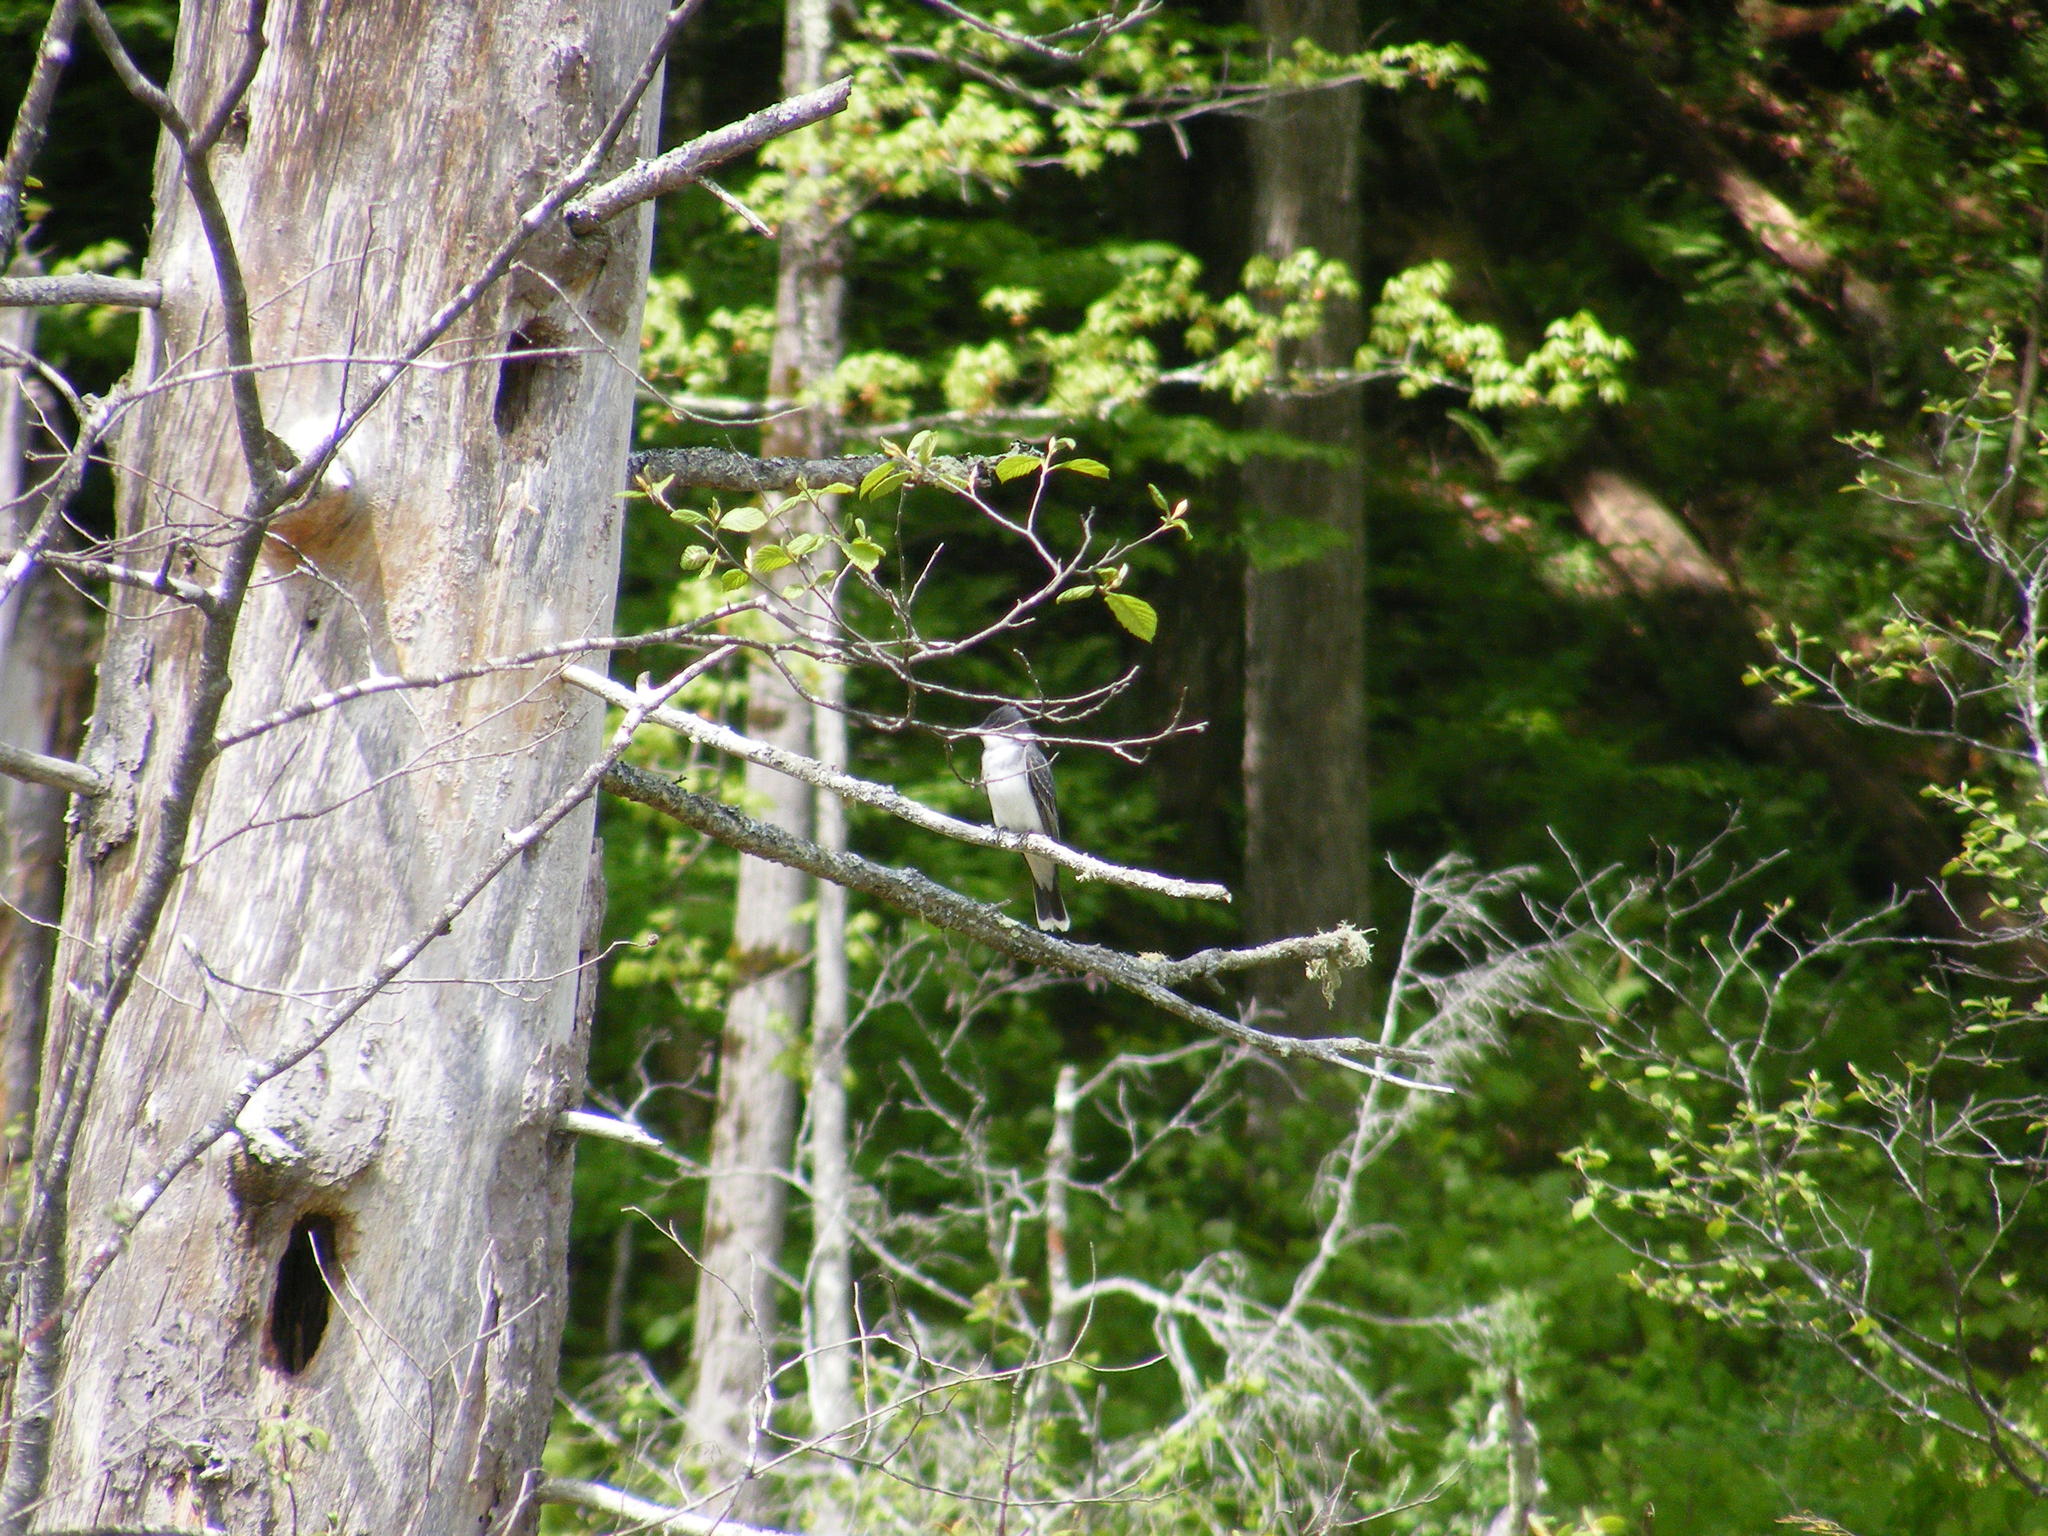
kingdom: Animalia
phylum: Chordata
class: Aves
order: Passeriformes
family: Tyrannidae
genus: Tyrannus
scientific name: Tyrannus tyrannus
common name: Eastern kingbird
